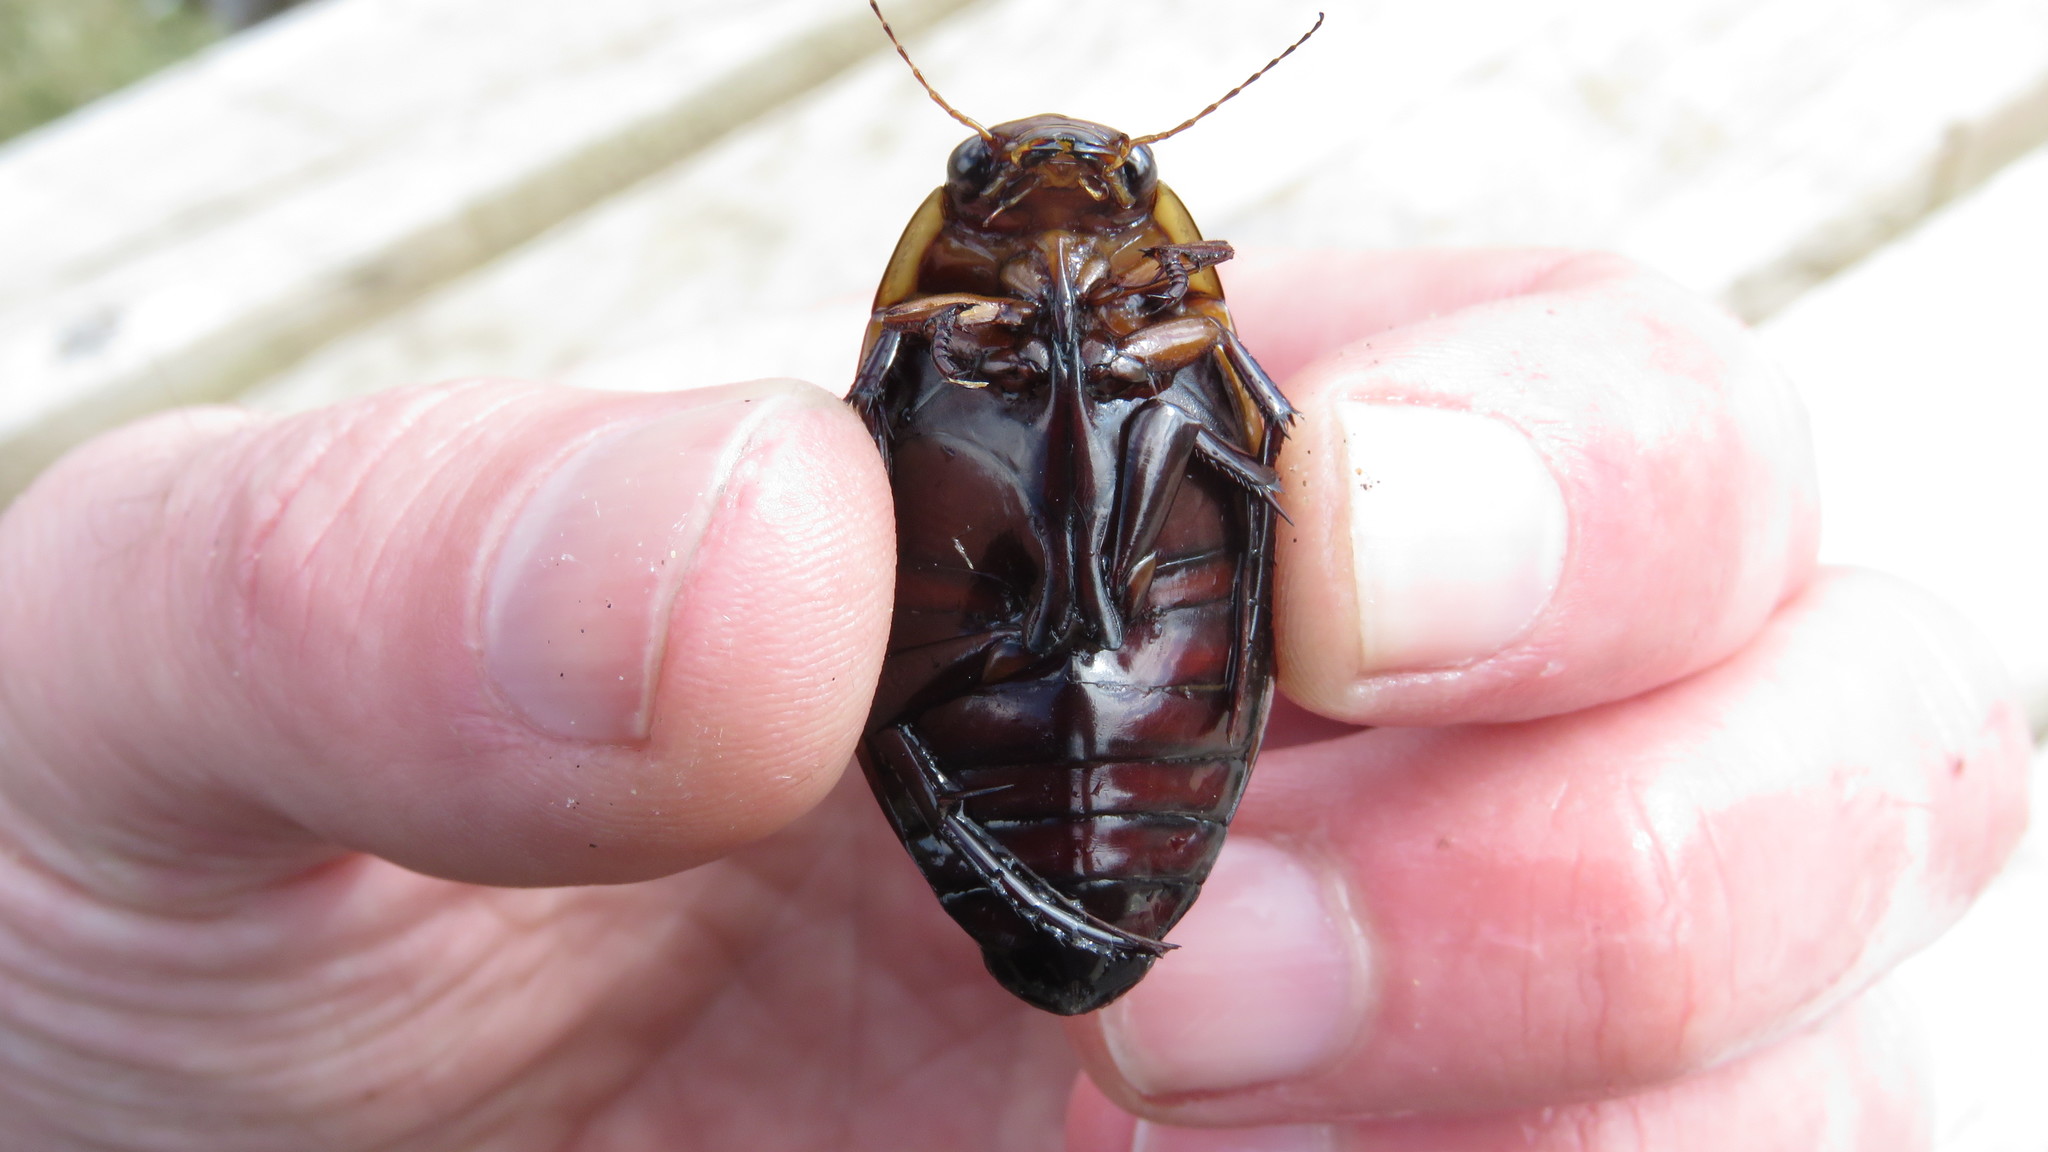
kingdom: Animalia
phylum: Arthropoda
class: Insecta
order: Coleoptera
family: Dytiscidae
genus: Dytiscus
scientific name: Dytiscus verticalis
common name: Vertical diving beetle
